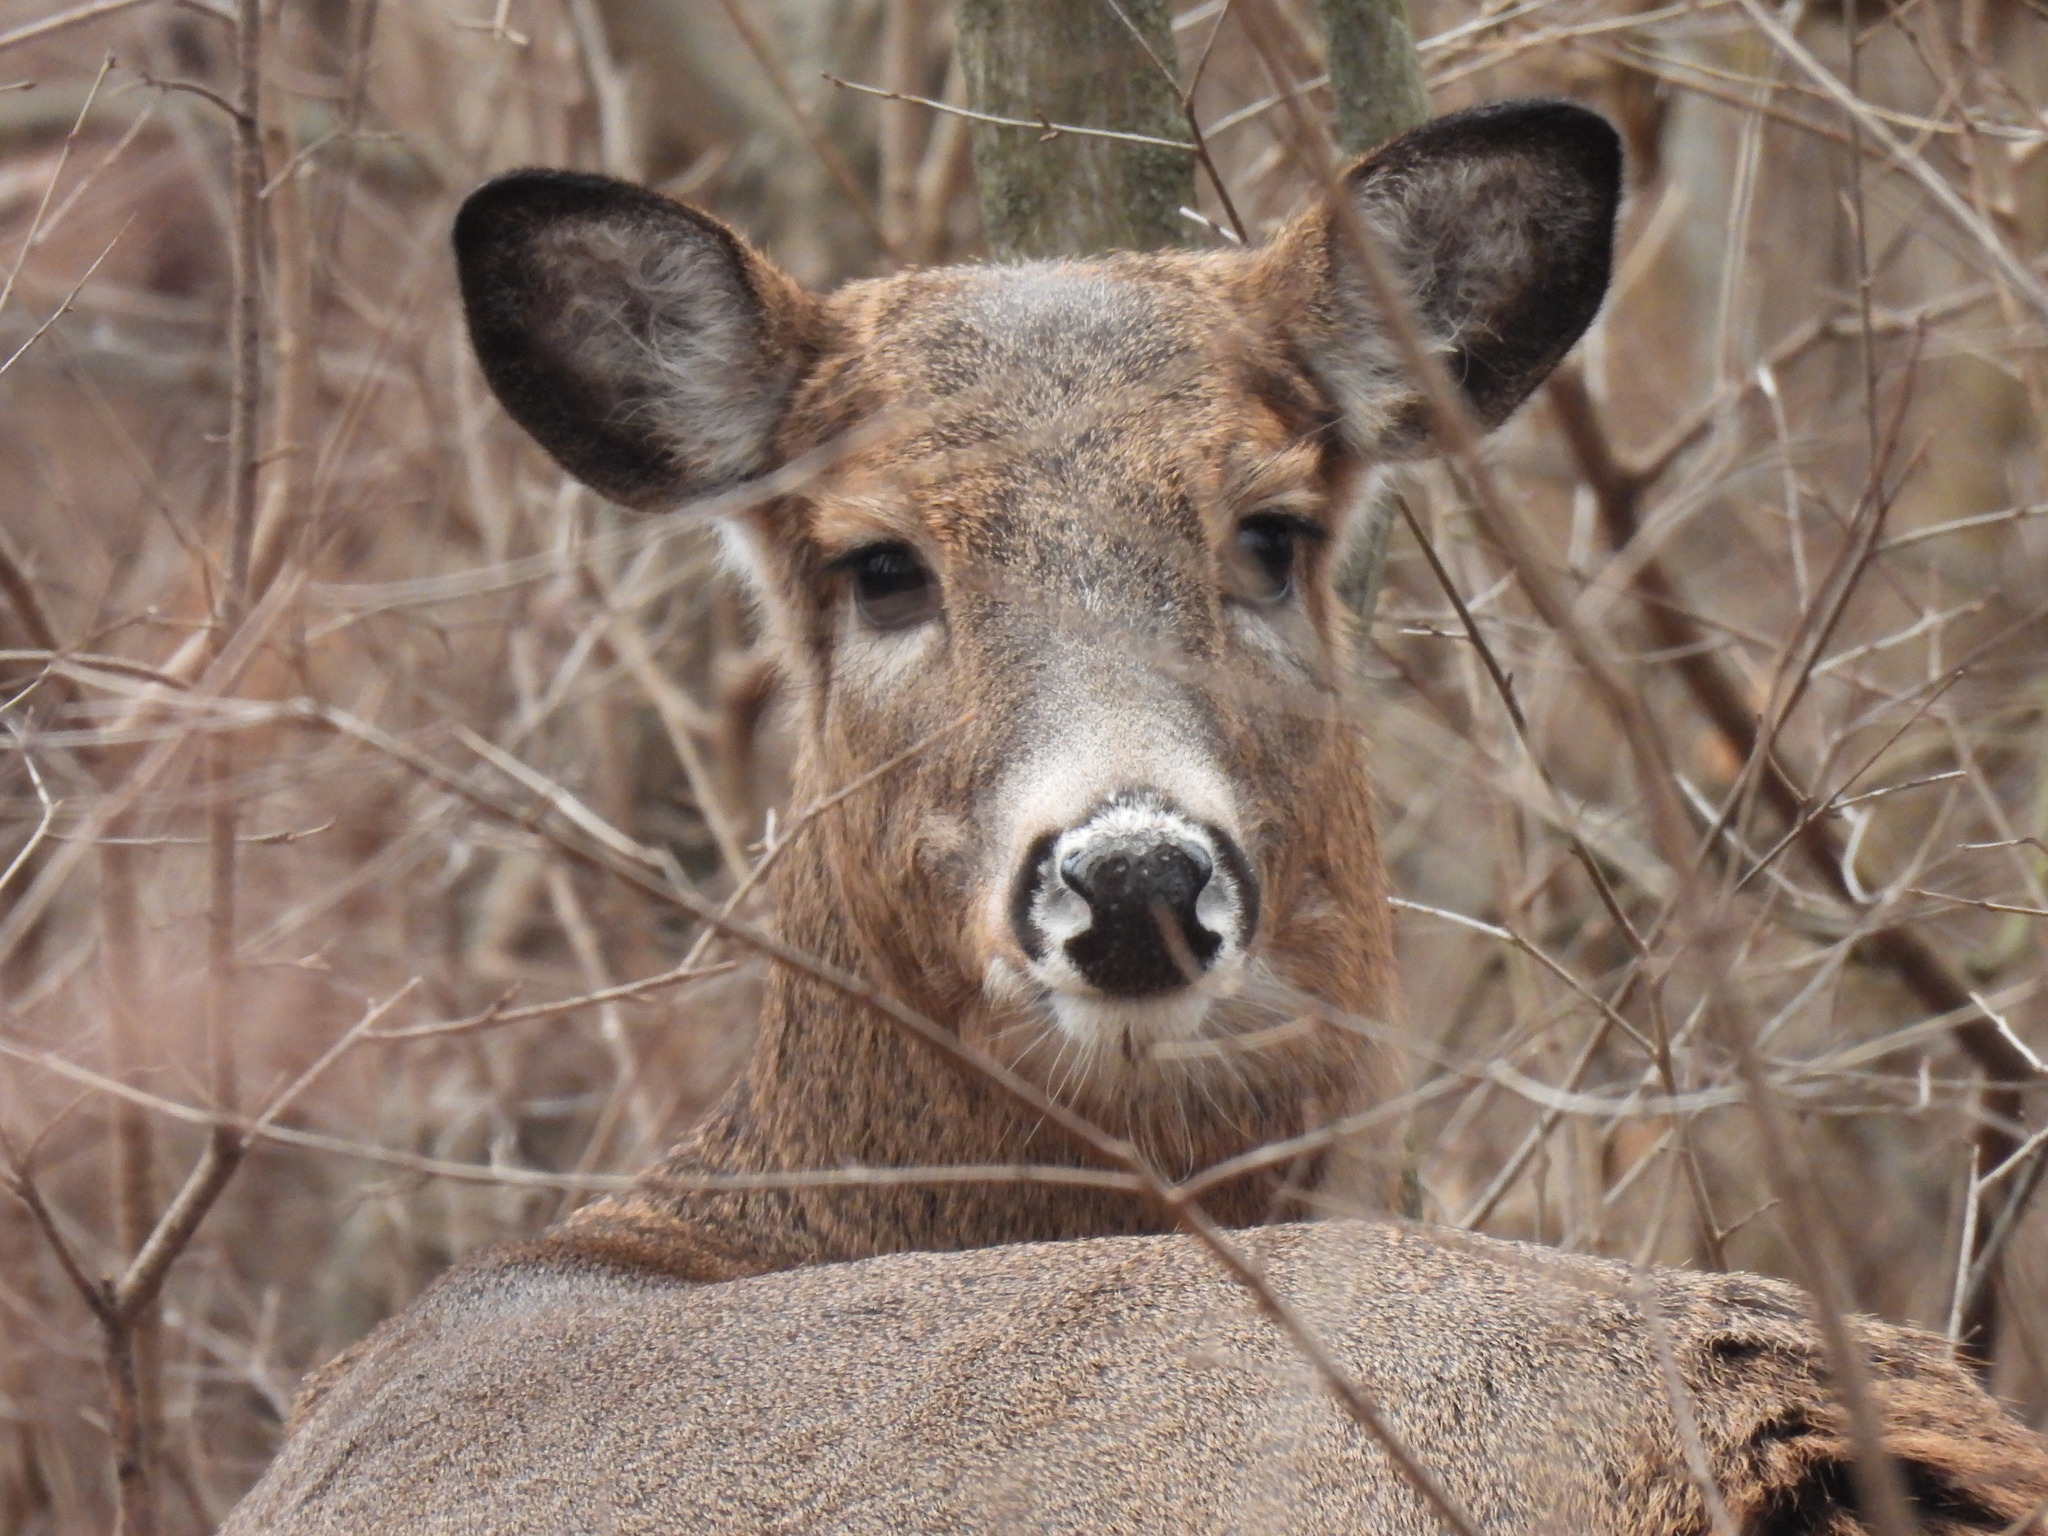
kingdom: Animalia
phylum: Chordata
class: Mammalia
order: Artiodactyla
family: Cervidae
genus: Odocoileus
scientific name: Odocoileus virginianus
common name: White-tailed deer
